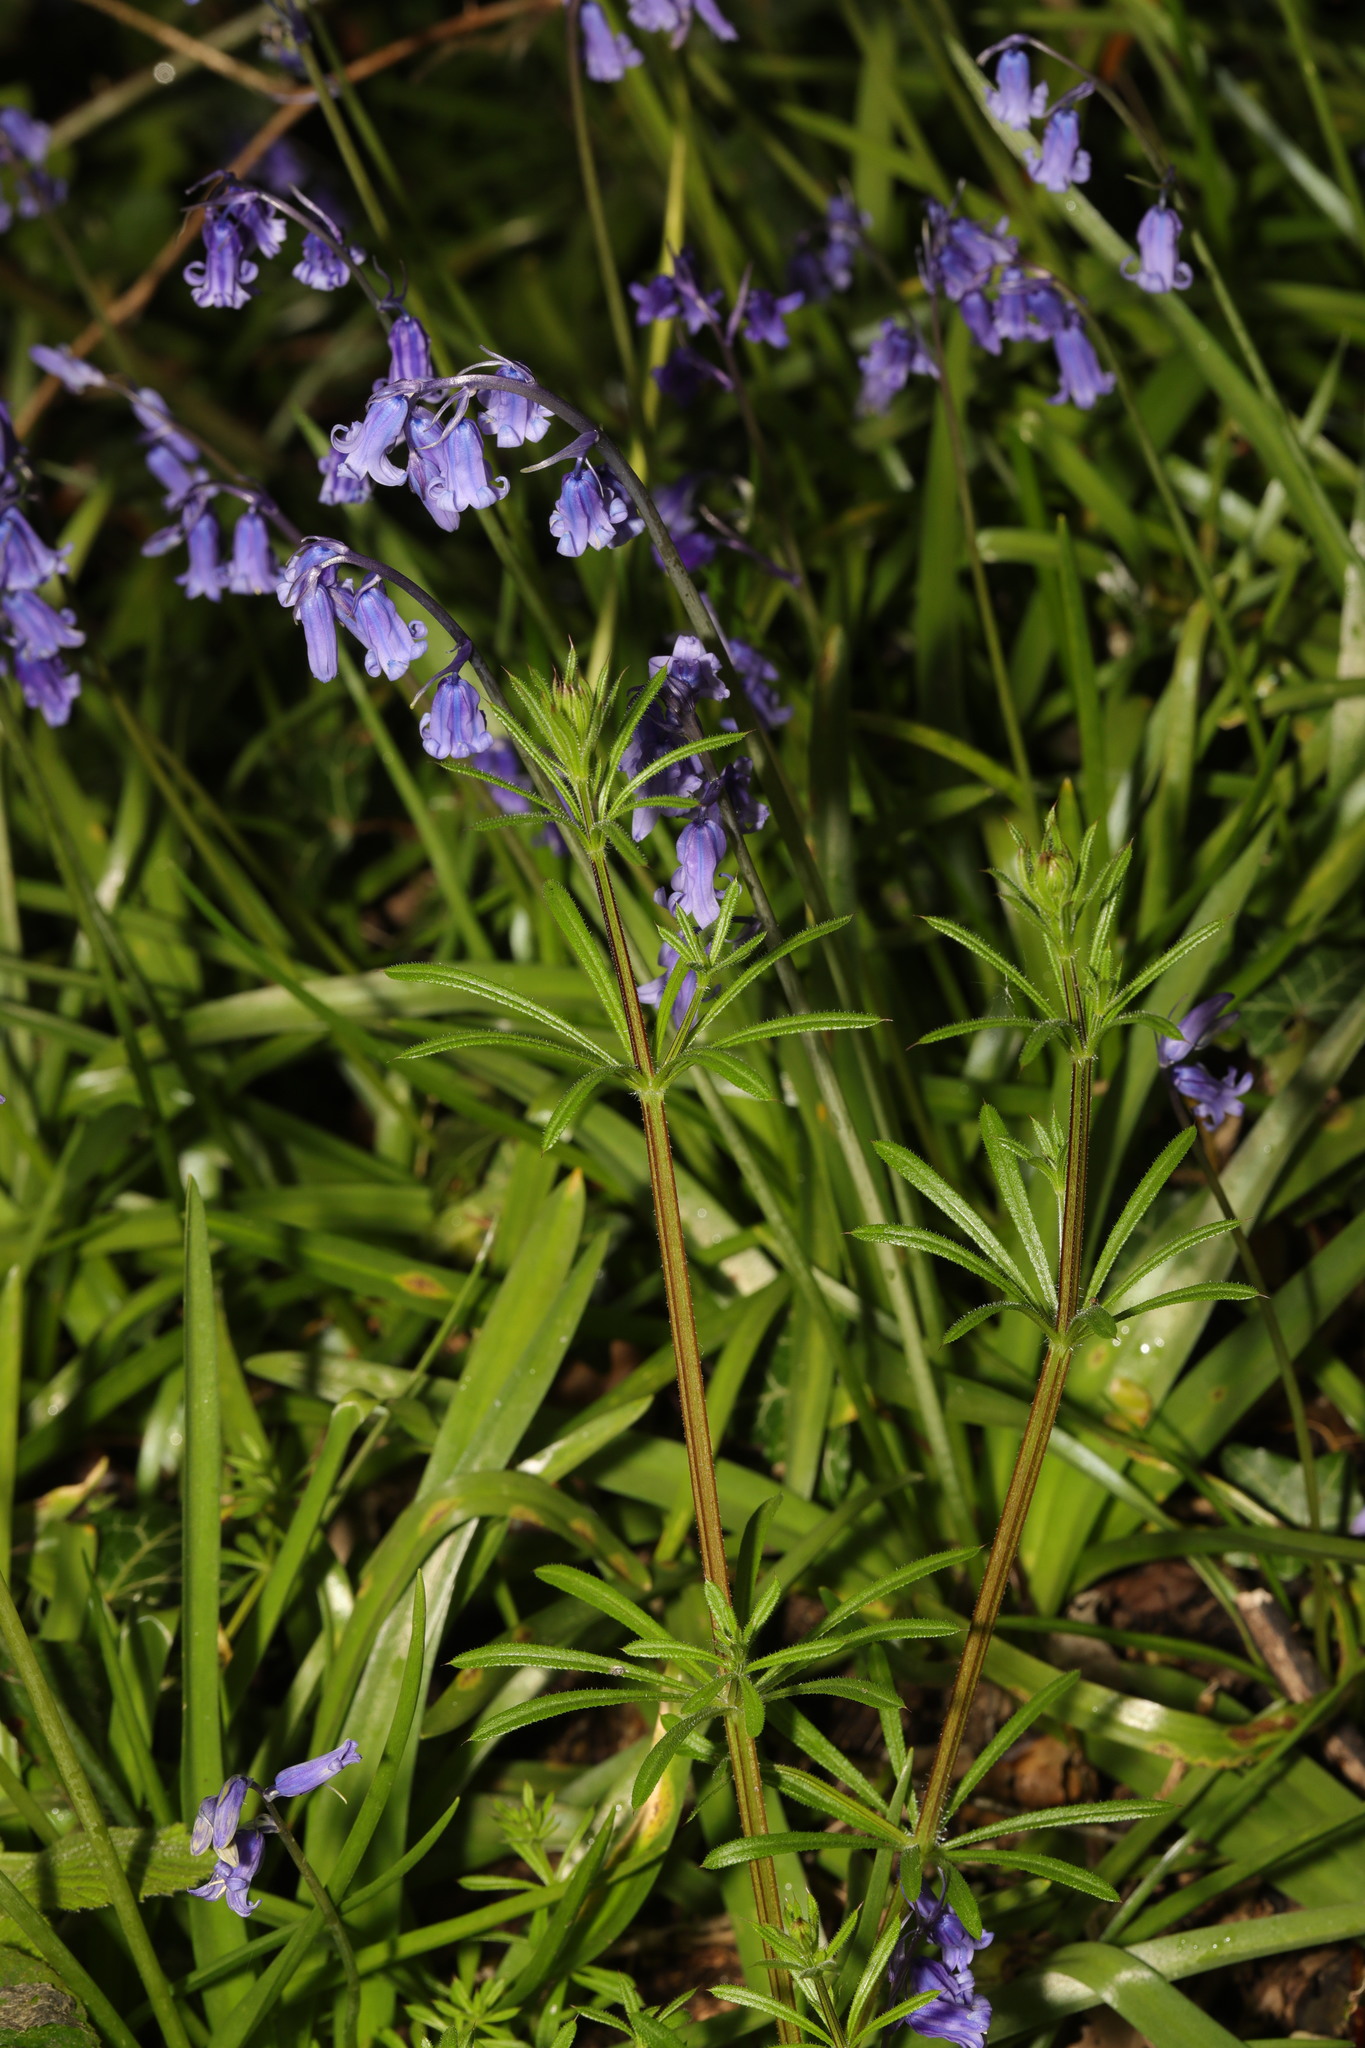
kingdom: Plantae
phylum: Tracheophyta
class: Liliopsida
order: Asparagales
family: Asparagaceae
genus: Hyacinthoides
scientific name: Hyacinthoides non-scripta
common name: Bluebell
